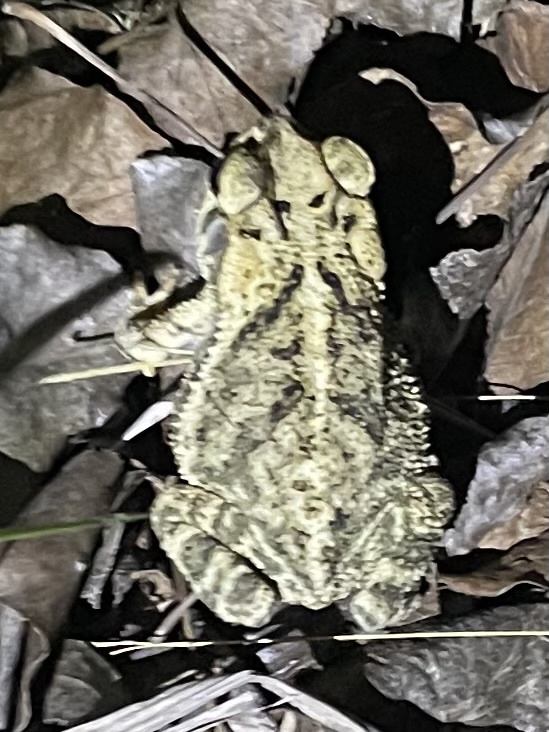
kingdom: Animalia
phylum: Chordata
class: Amphibia
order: Anura
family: Bufonidae
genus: Incilius
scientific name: Incilius nebulifer
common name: Gulf coast toad
